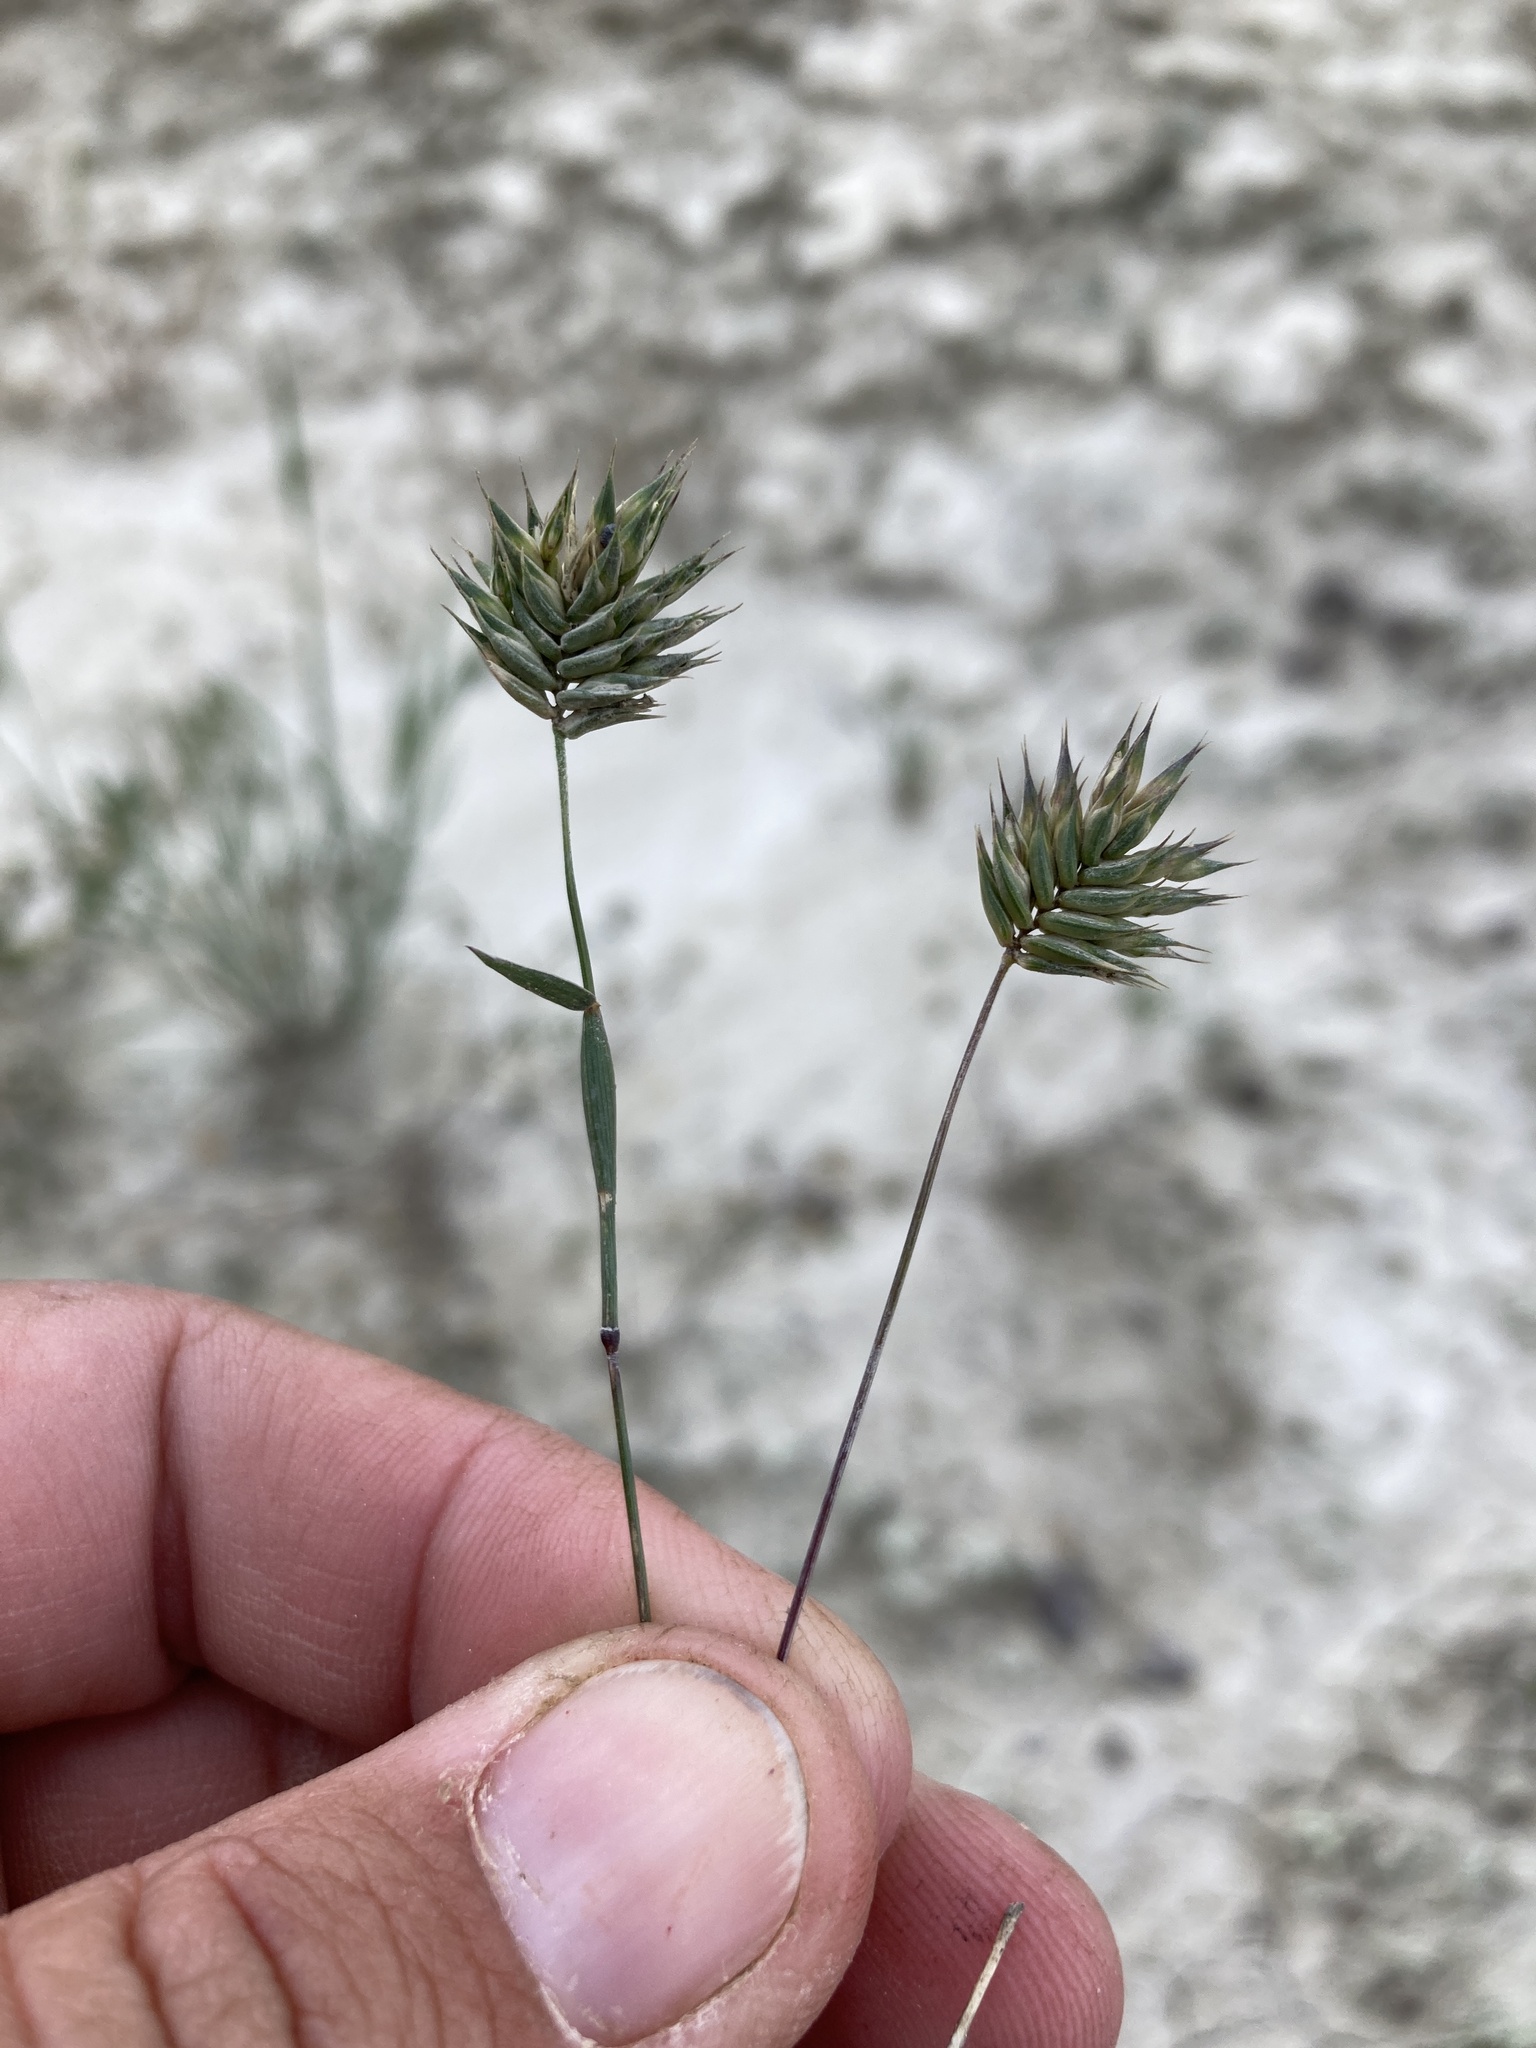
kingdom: Plantae
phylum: Tracheophyta
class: Liliopsida
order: Poales
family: Poaceae
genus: Eremopyrum
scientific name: Eremopyrum triticeum
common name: Annual wheatgrass
